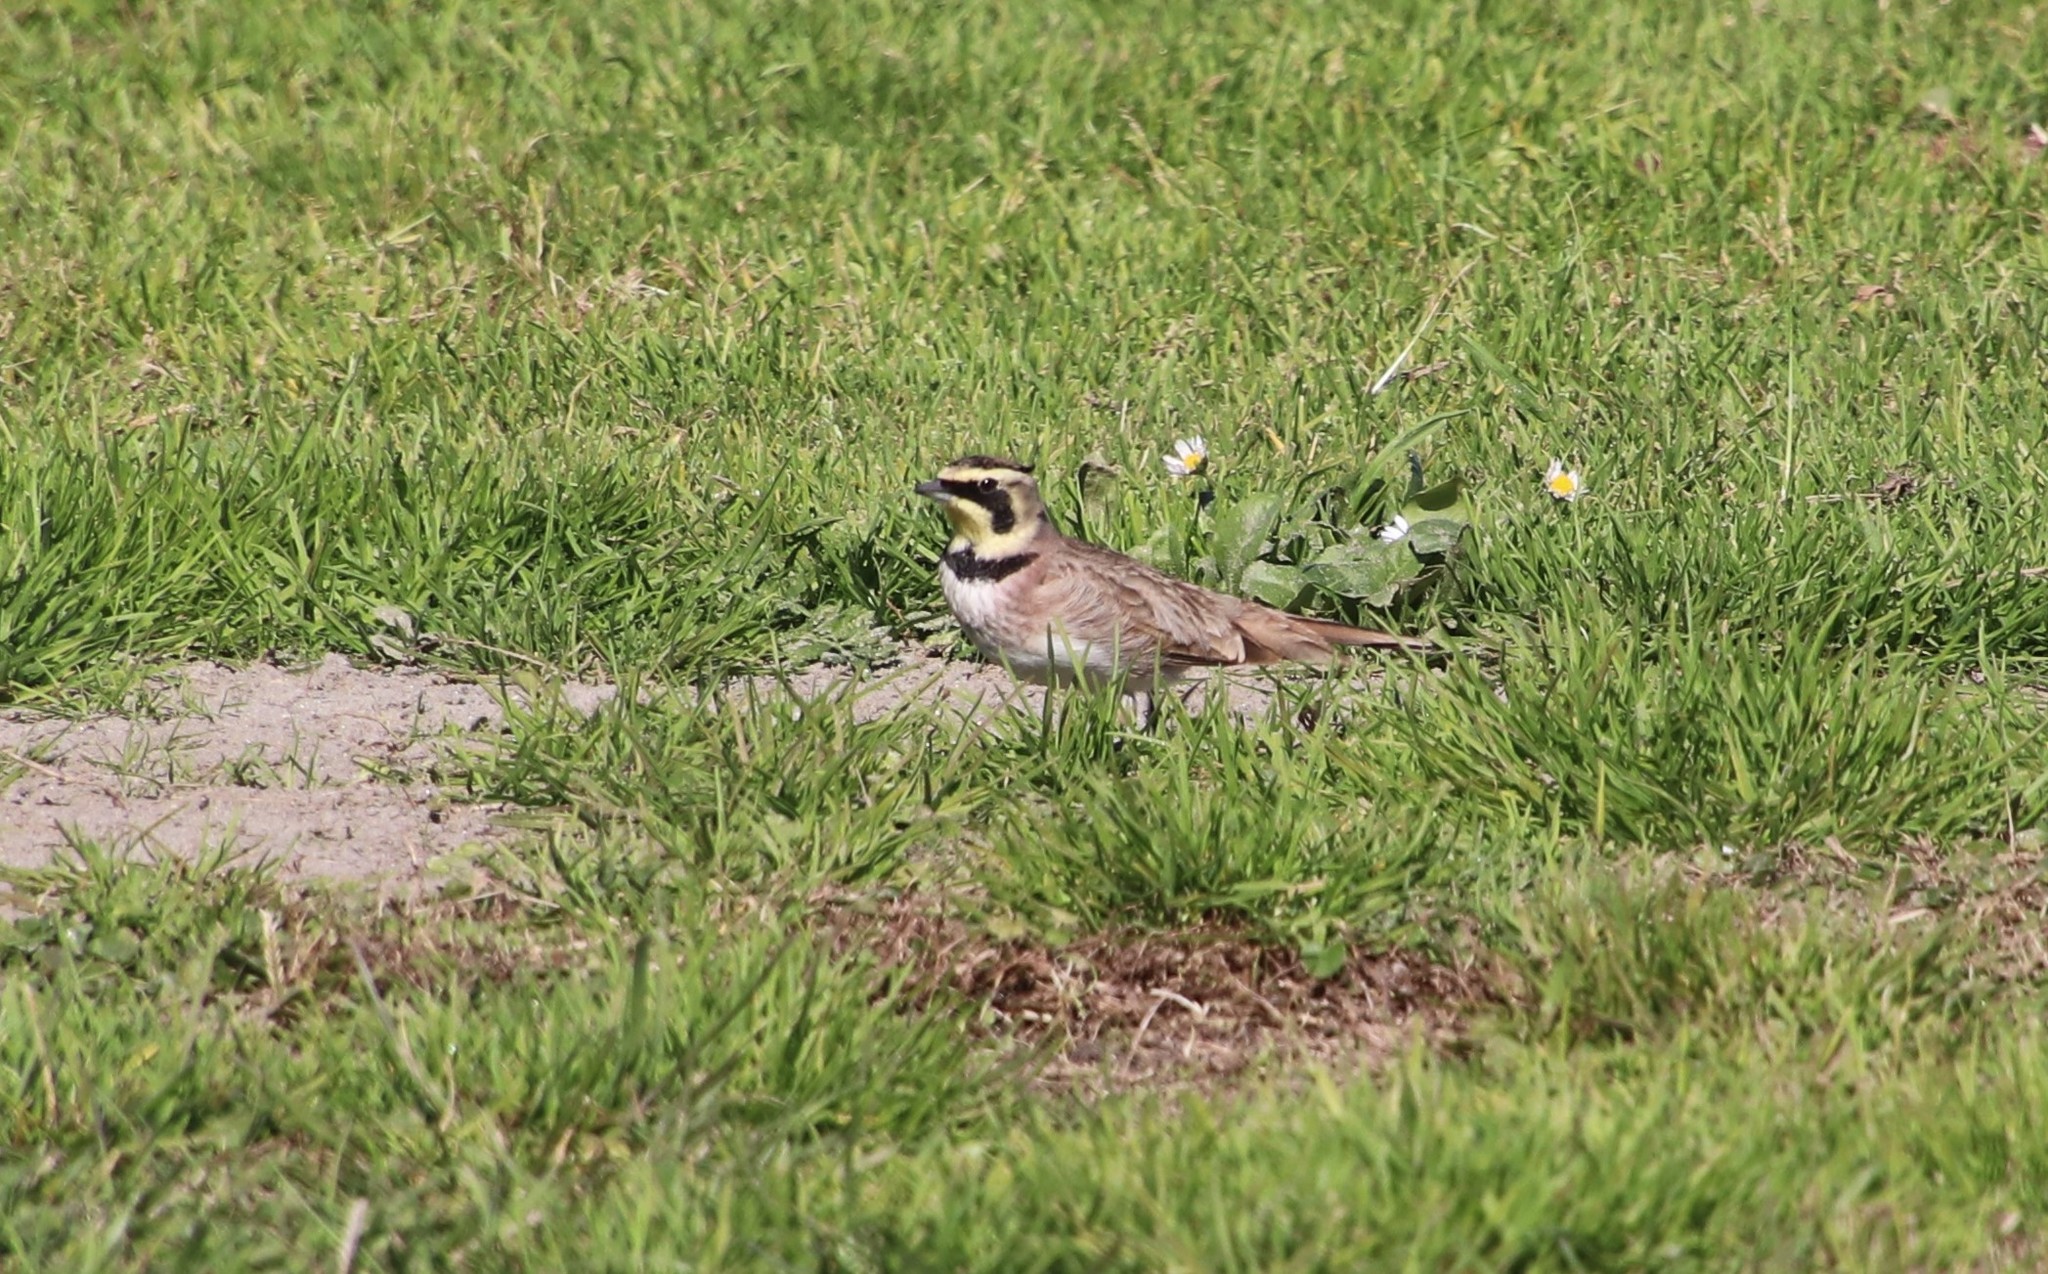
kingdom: Animalia
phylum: Chordata
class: Aves
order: Passeriformes
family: Alaudidae
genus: Eremophila
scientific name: Eremophila alpestris
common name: Horned lark
